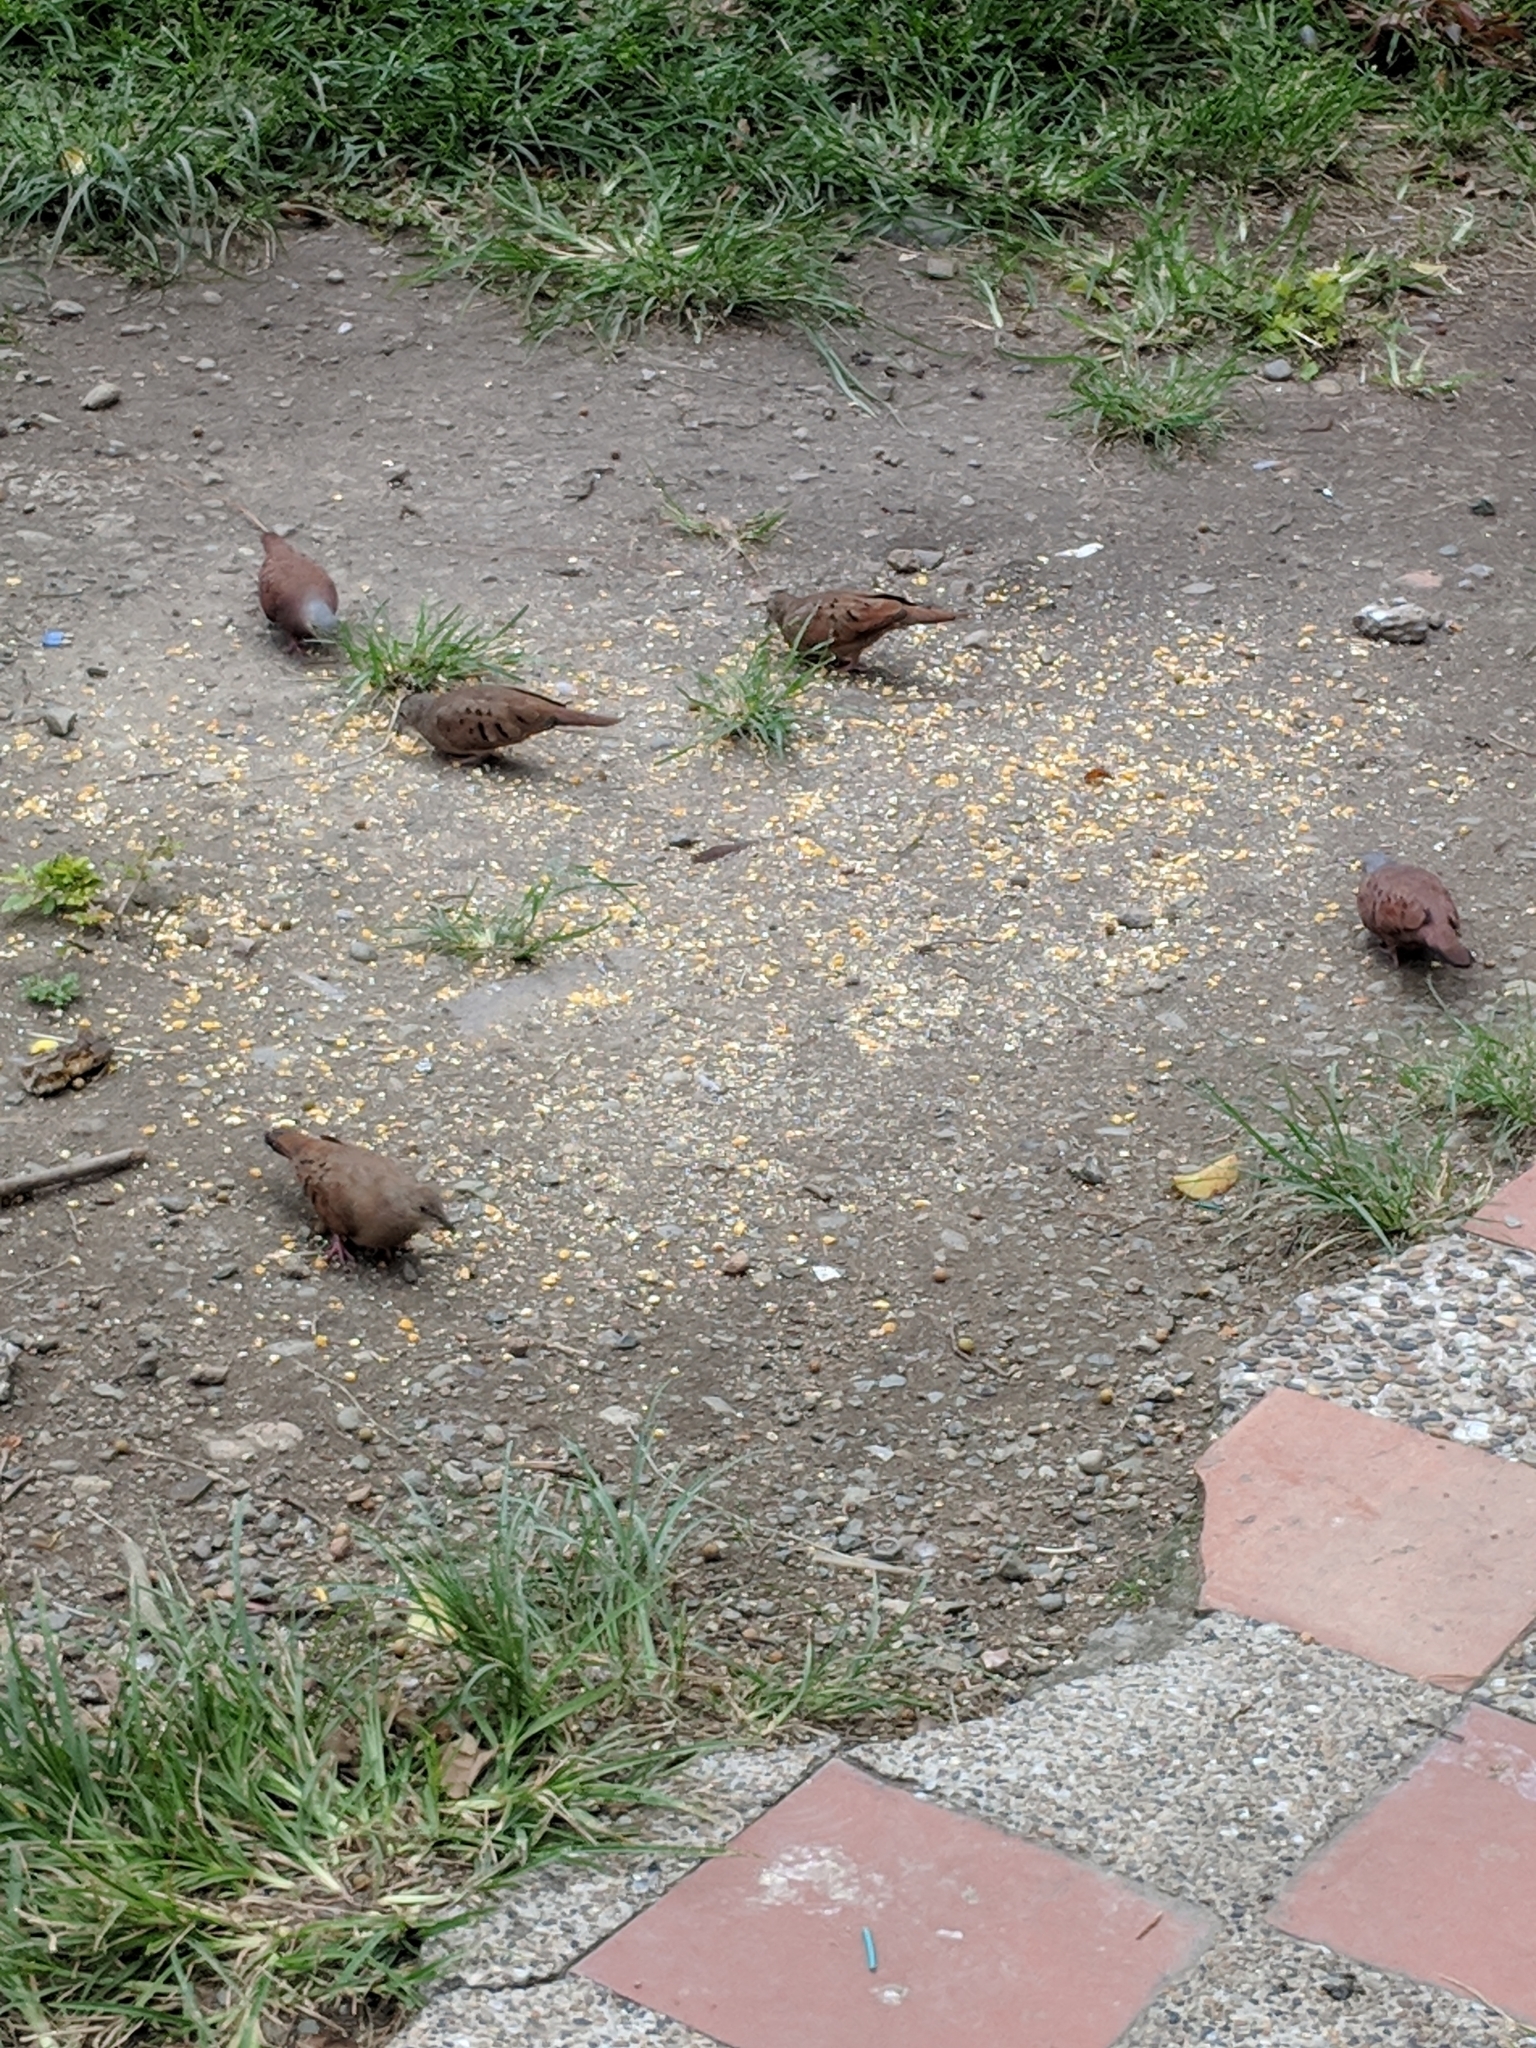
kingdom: Animalia
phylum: Chordata
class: Aves
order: Columbiformes
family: Columbidae
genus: Columbina
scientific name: Columbina talpacoti
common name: Ruddy ground dove
